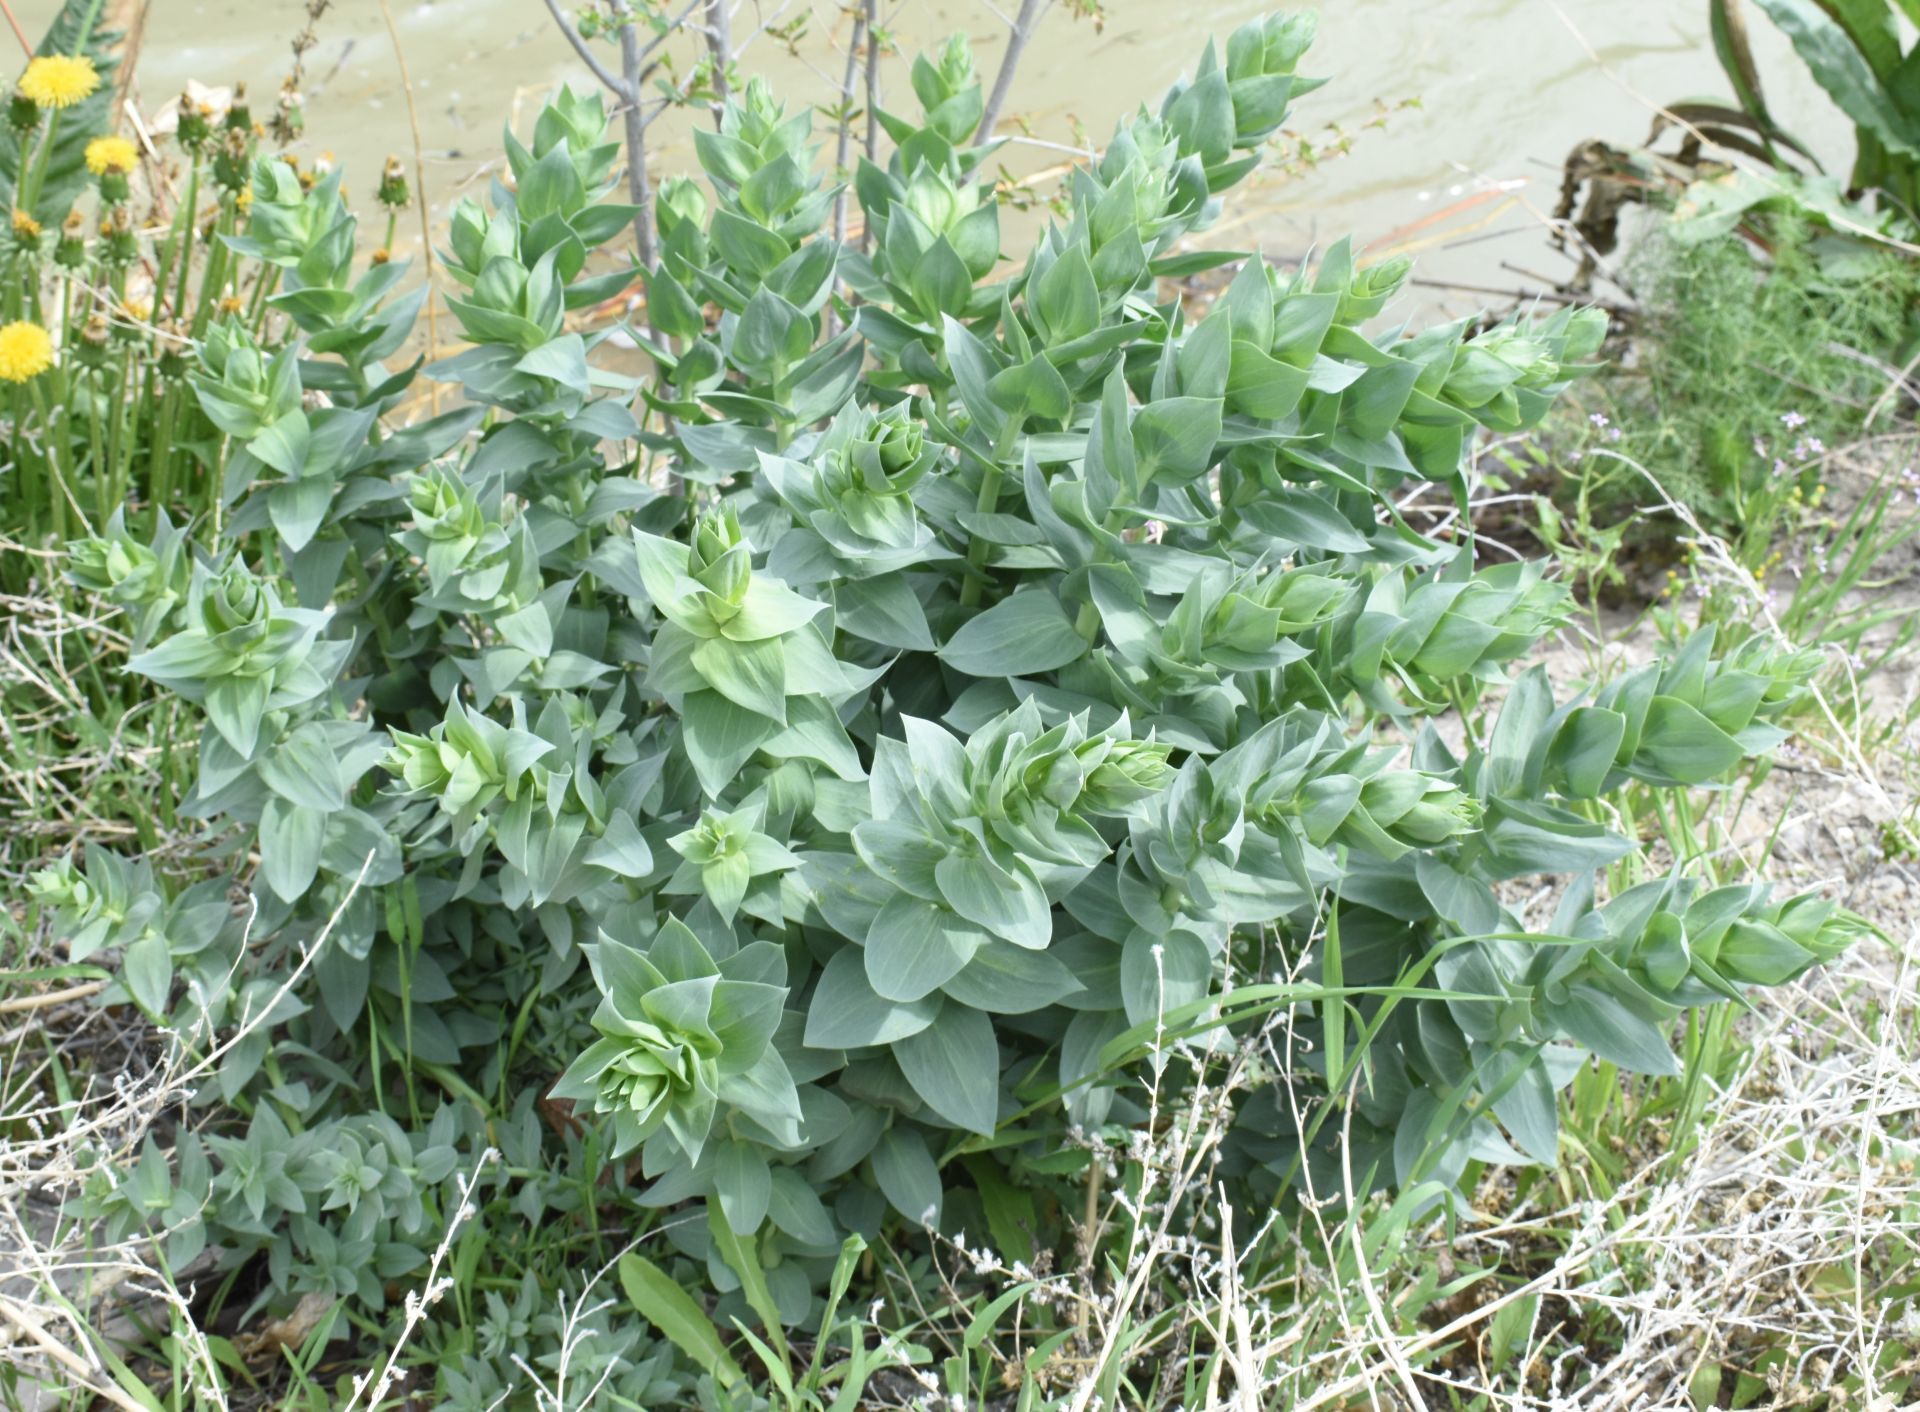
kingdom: Plantae
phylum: Tracheophyta
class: Magnoliopsida
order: Lamiales
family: Plantaginaceae
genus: Linaria
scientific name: Linaria dalmatica
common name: Dalmatian toadflax
